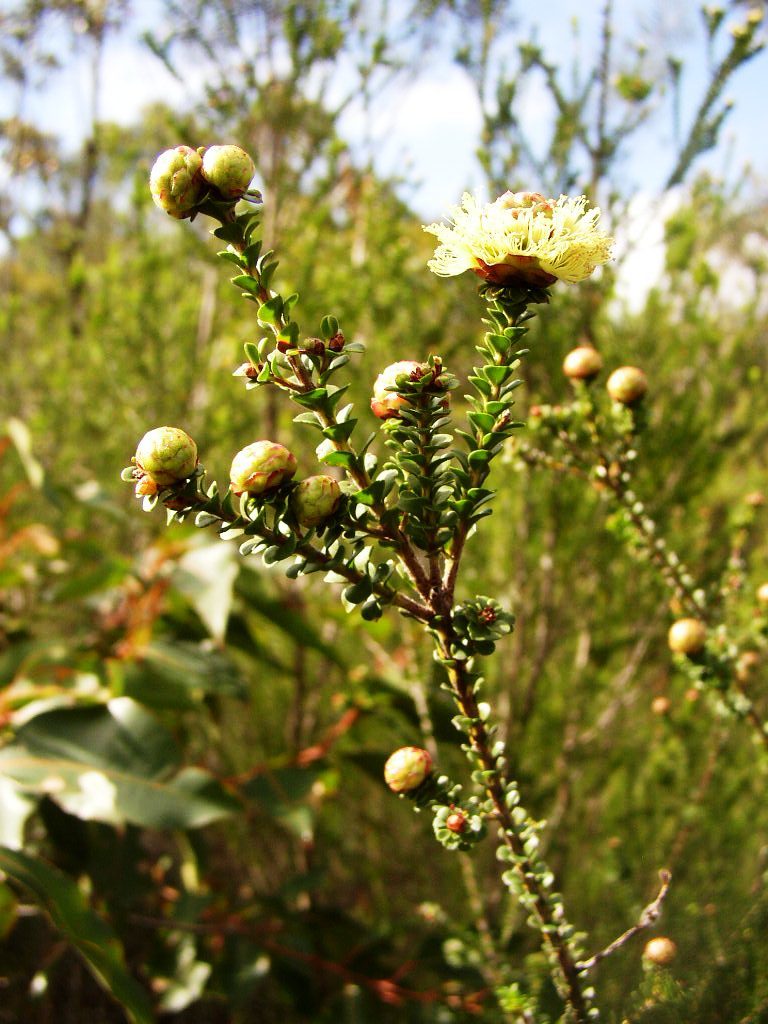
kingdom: Plantae
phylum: Tracheophyta
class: Magnoliopsida
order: Myrtales
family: Myrtaceae
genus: Kunzea
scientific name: Kunzea montana
